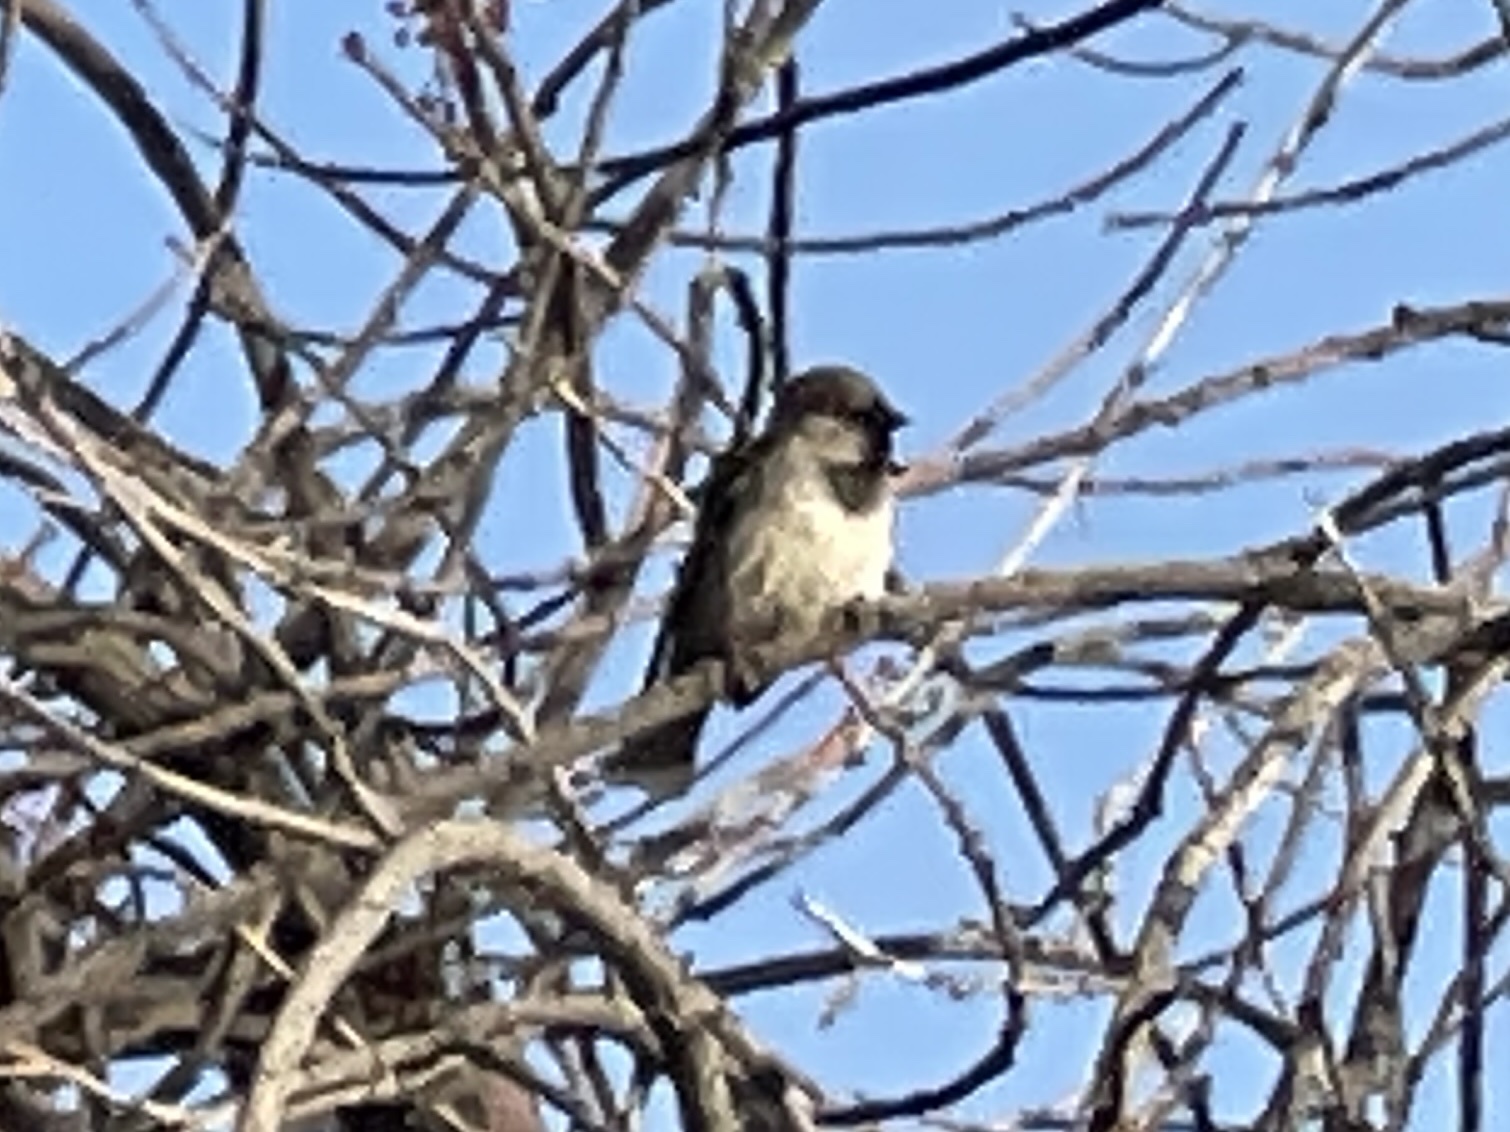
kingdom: Animalia
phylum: Chordata
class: Aves
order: Passeriformes
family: Passeridae
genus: Passer
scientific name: Passer domesticus
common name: House sparrow
